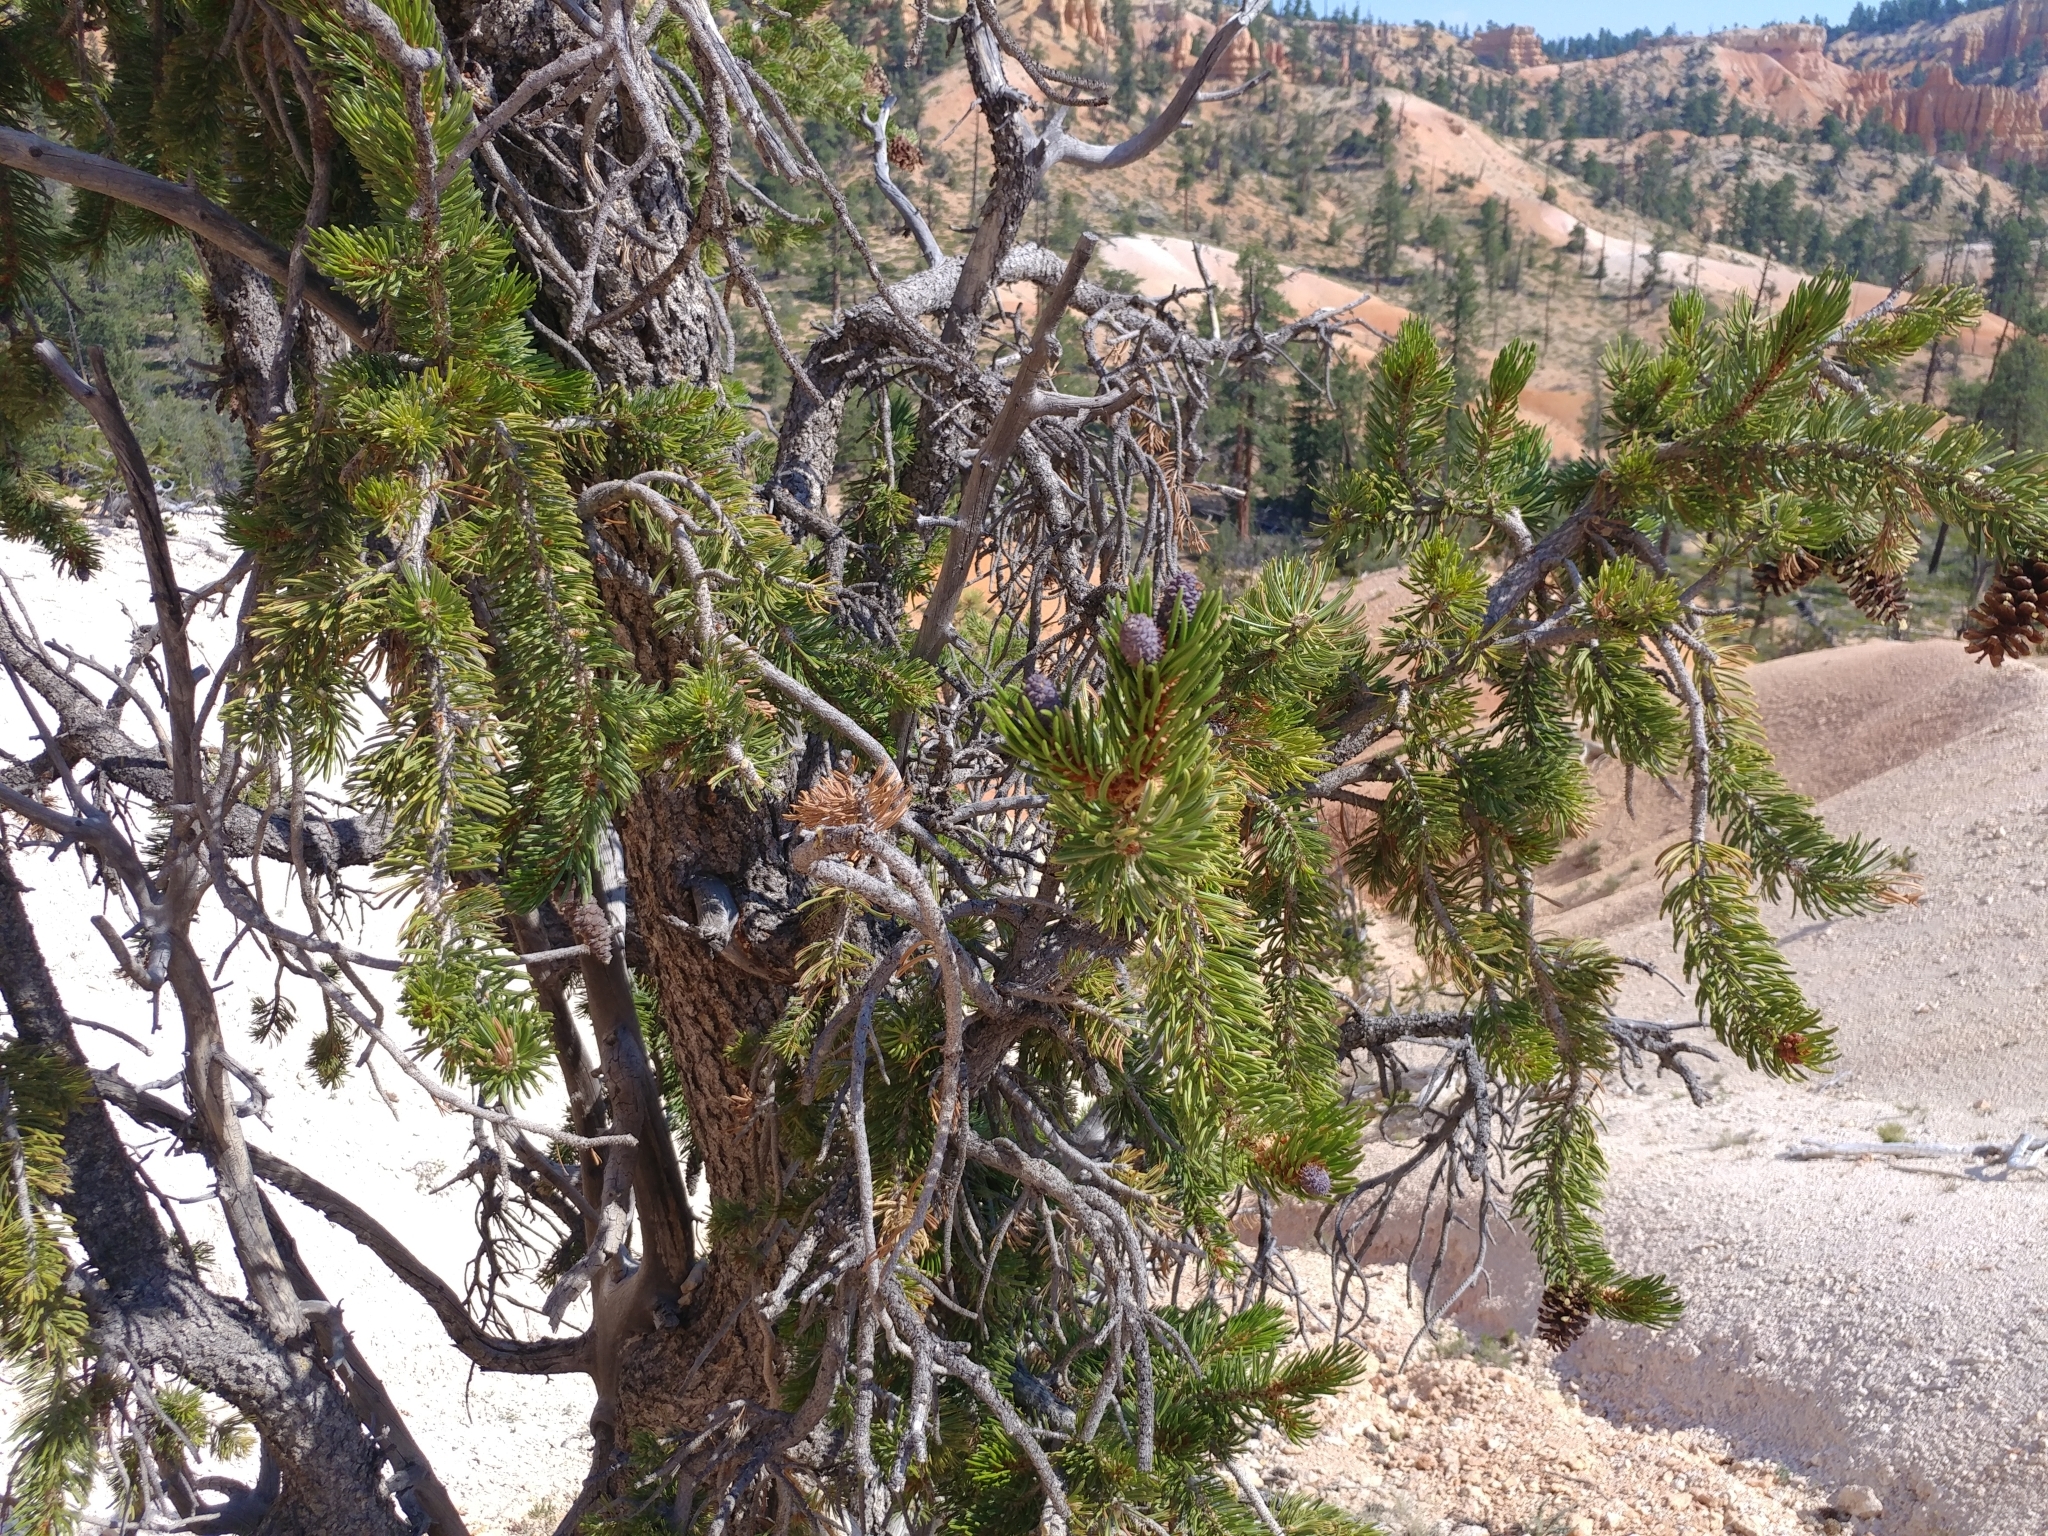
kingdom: Plantae
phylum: Tracheophyta
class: Pinopsida
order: Pinales
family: Pinaceae
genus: Pinus
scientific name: Pinus longaeva
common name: Intermountain bristlecone pine
